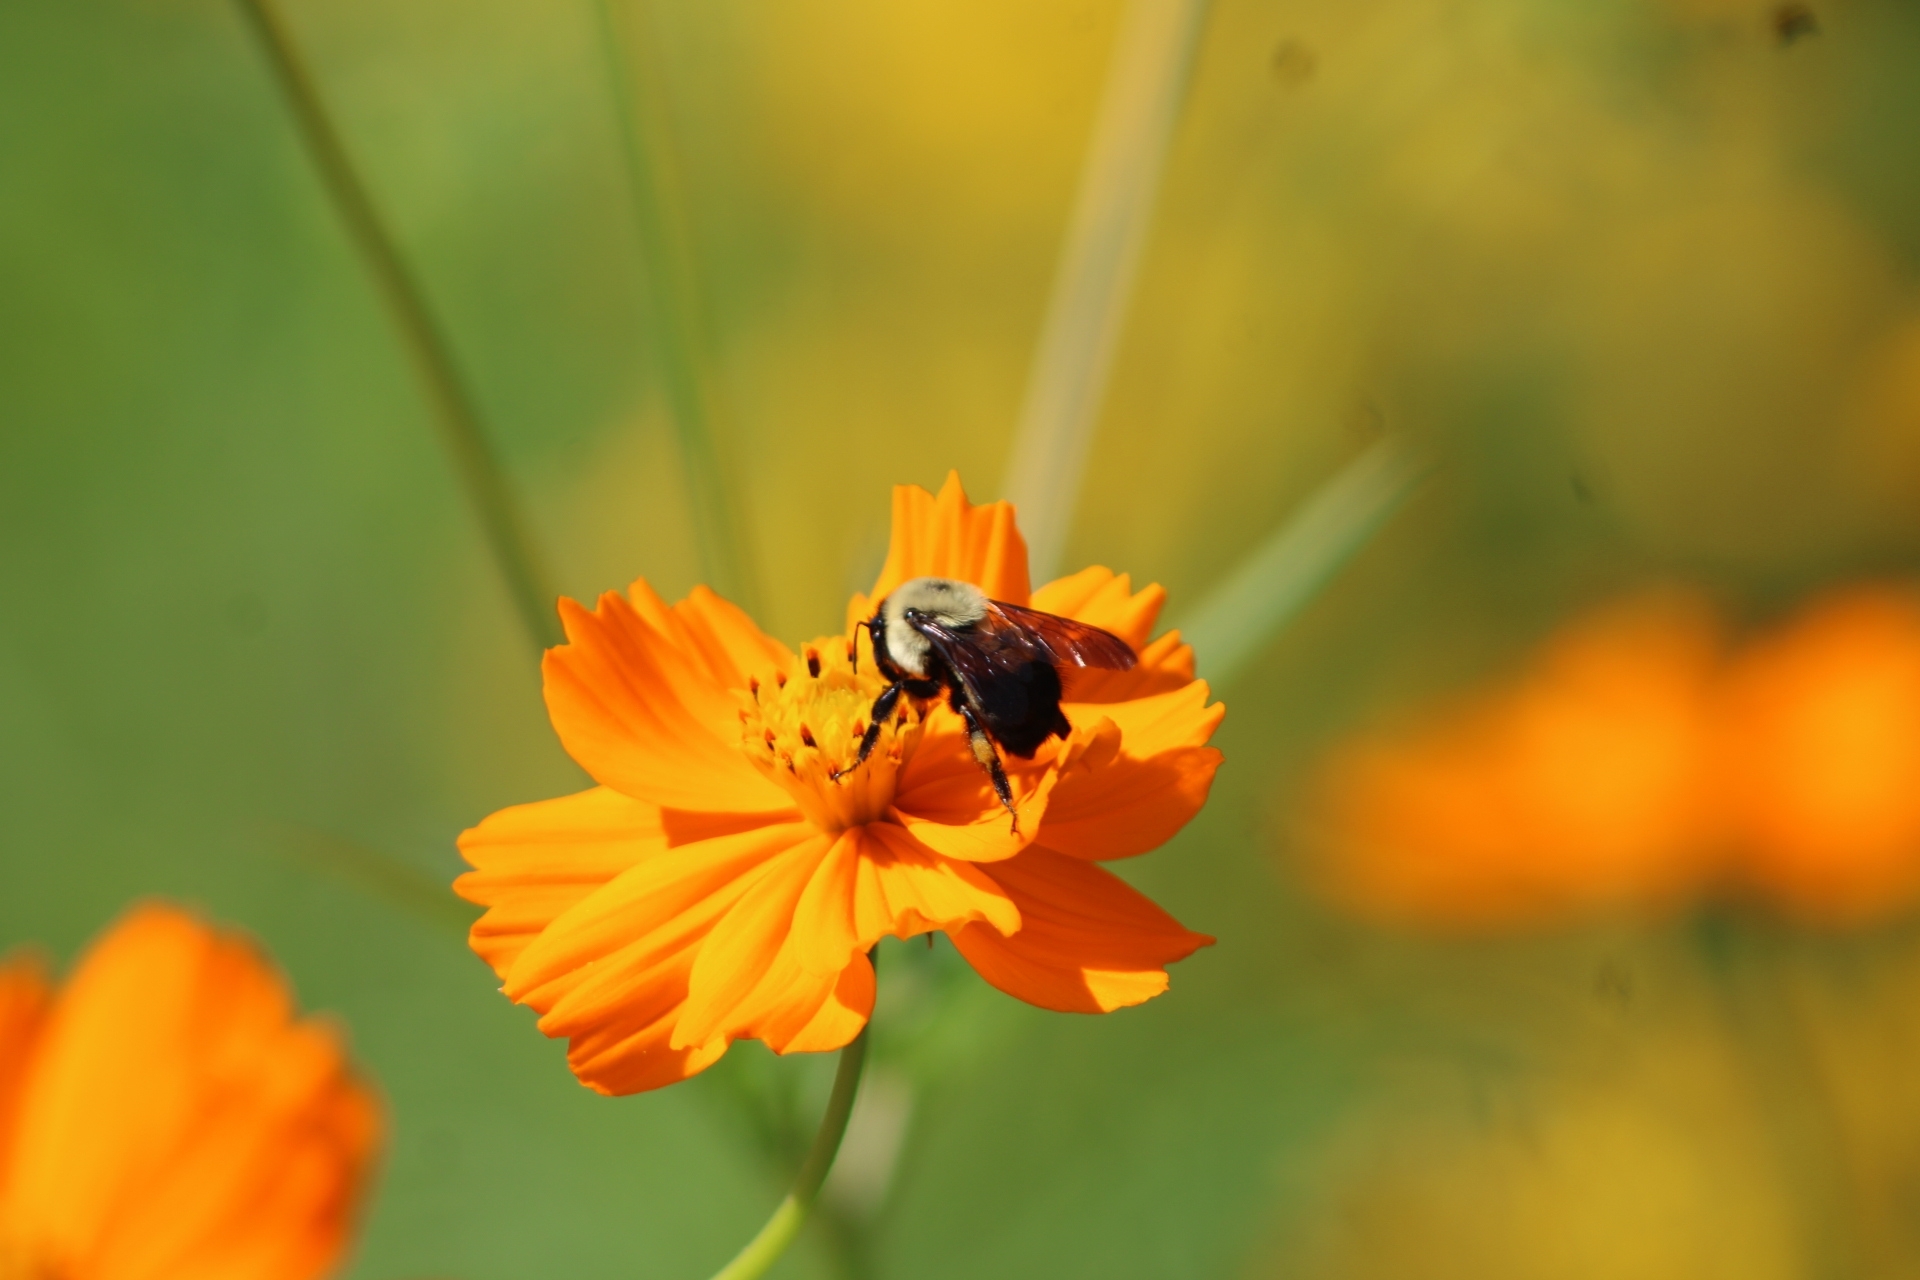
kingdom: Animalia
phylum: Arthropoda
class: Insecta
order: Hymenoptera
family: Apidae
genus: Bombus
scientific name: Bombus griseocollis
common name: Brown-belted bumble bee
